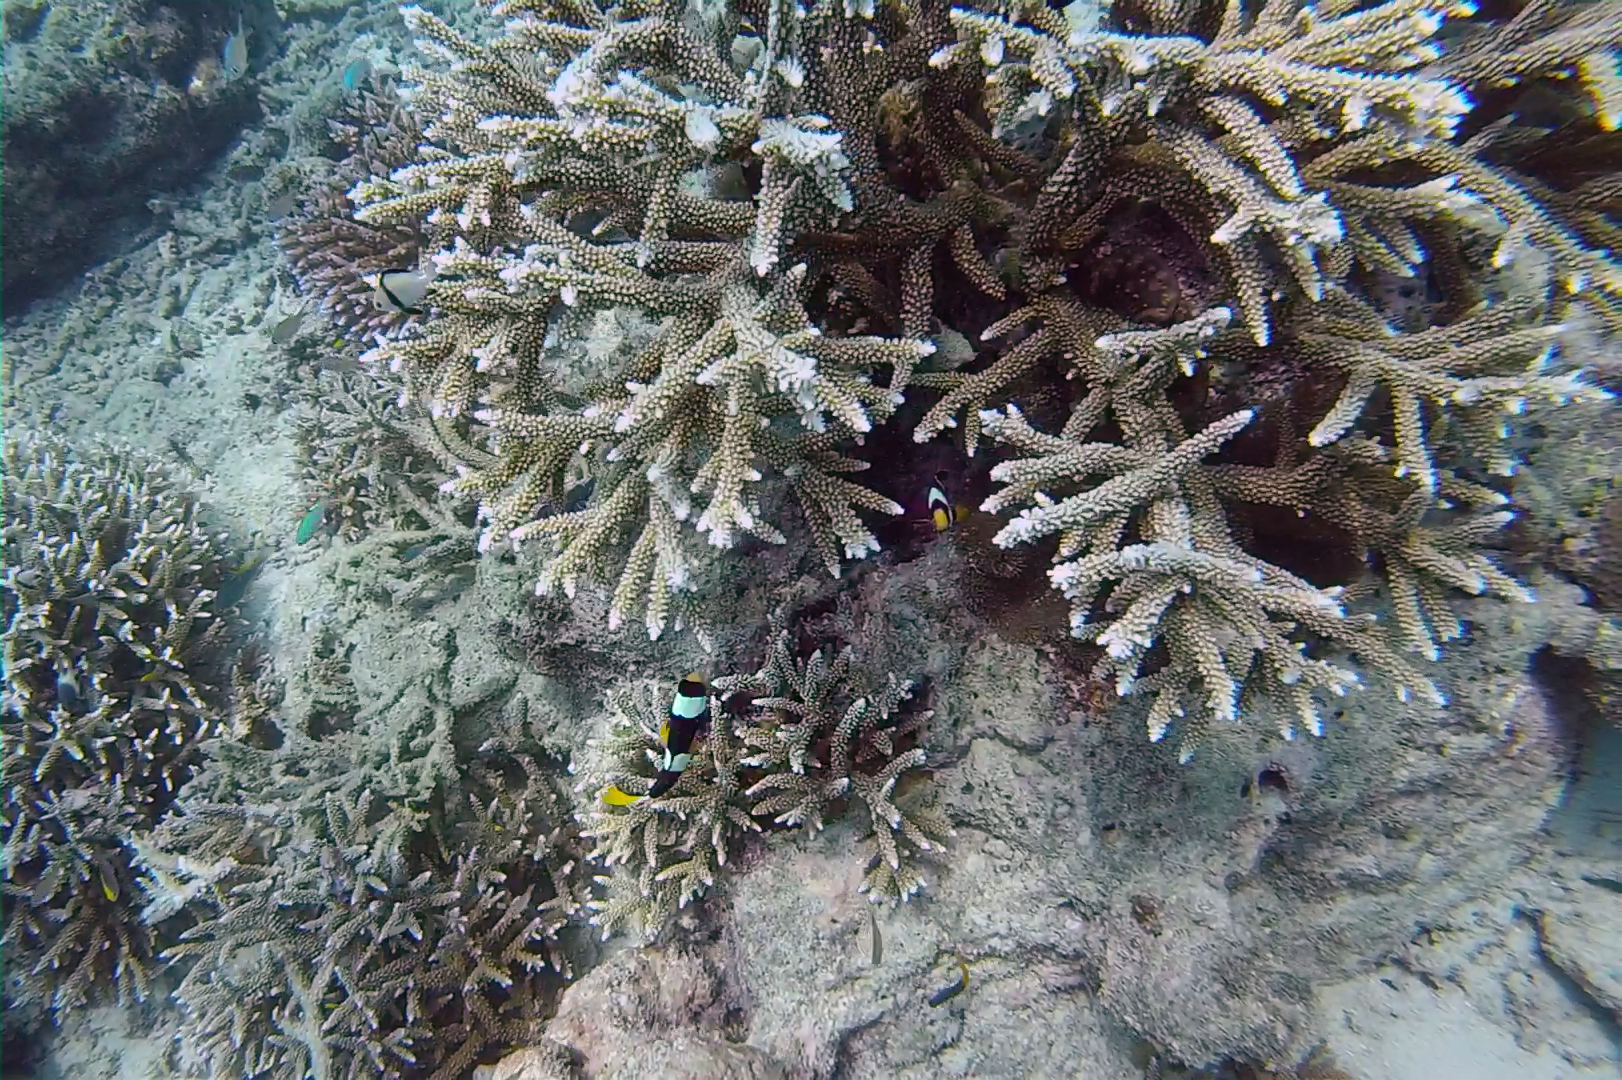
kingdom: Animalia
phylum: Chordata
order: Perciformes
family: Pomacentridae
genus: Amphiprion
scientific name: Amphiprion clarkii
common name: Clark's anemonefish
